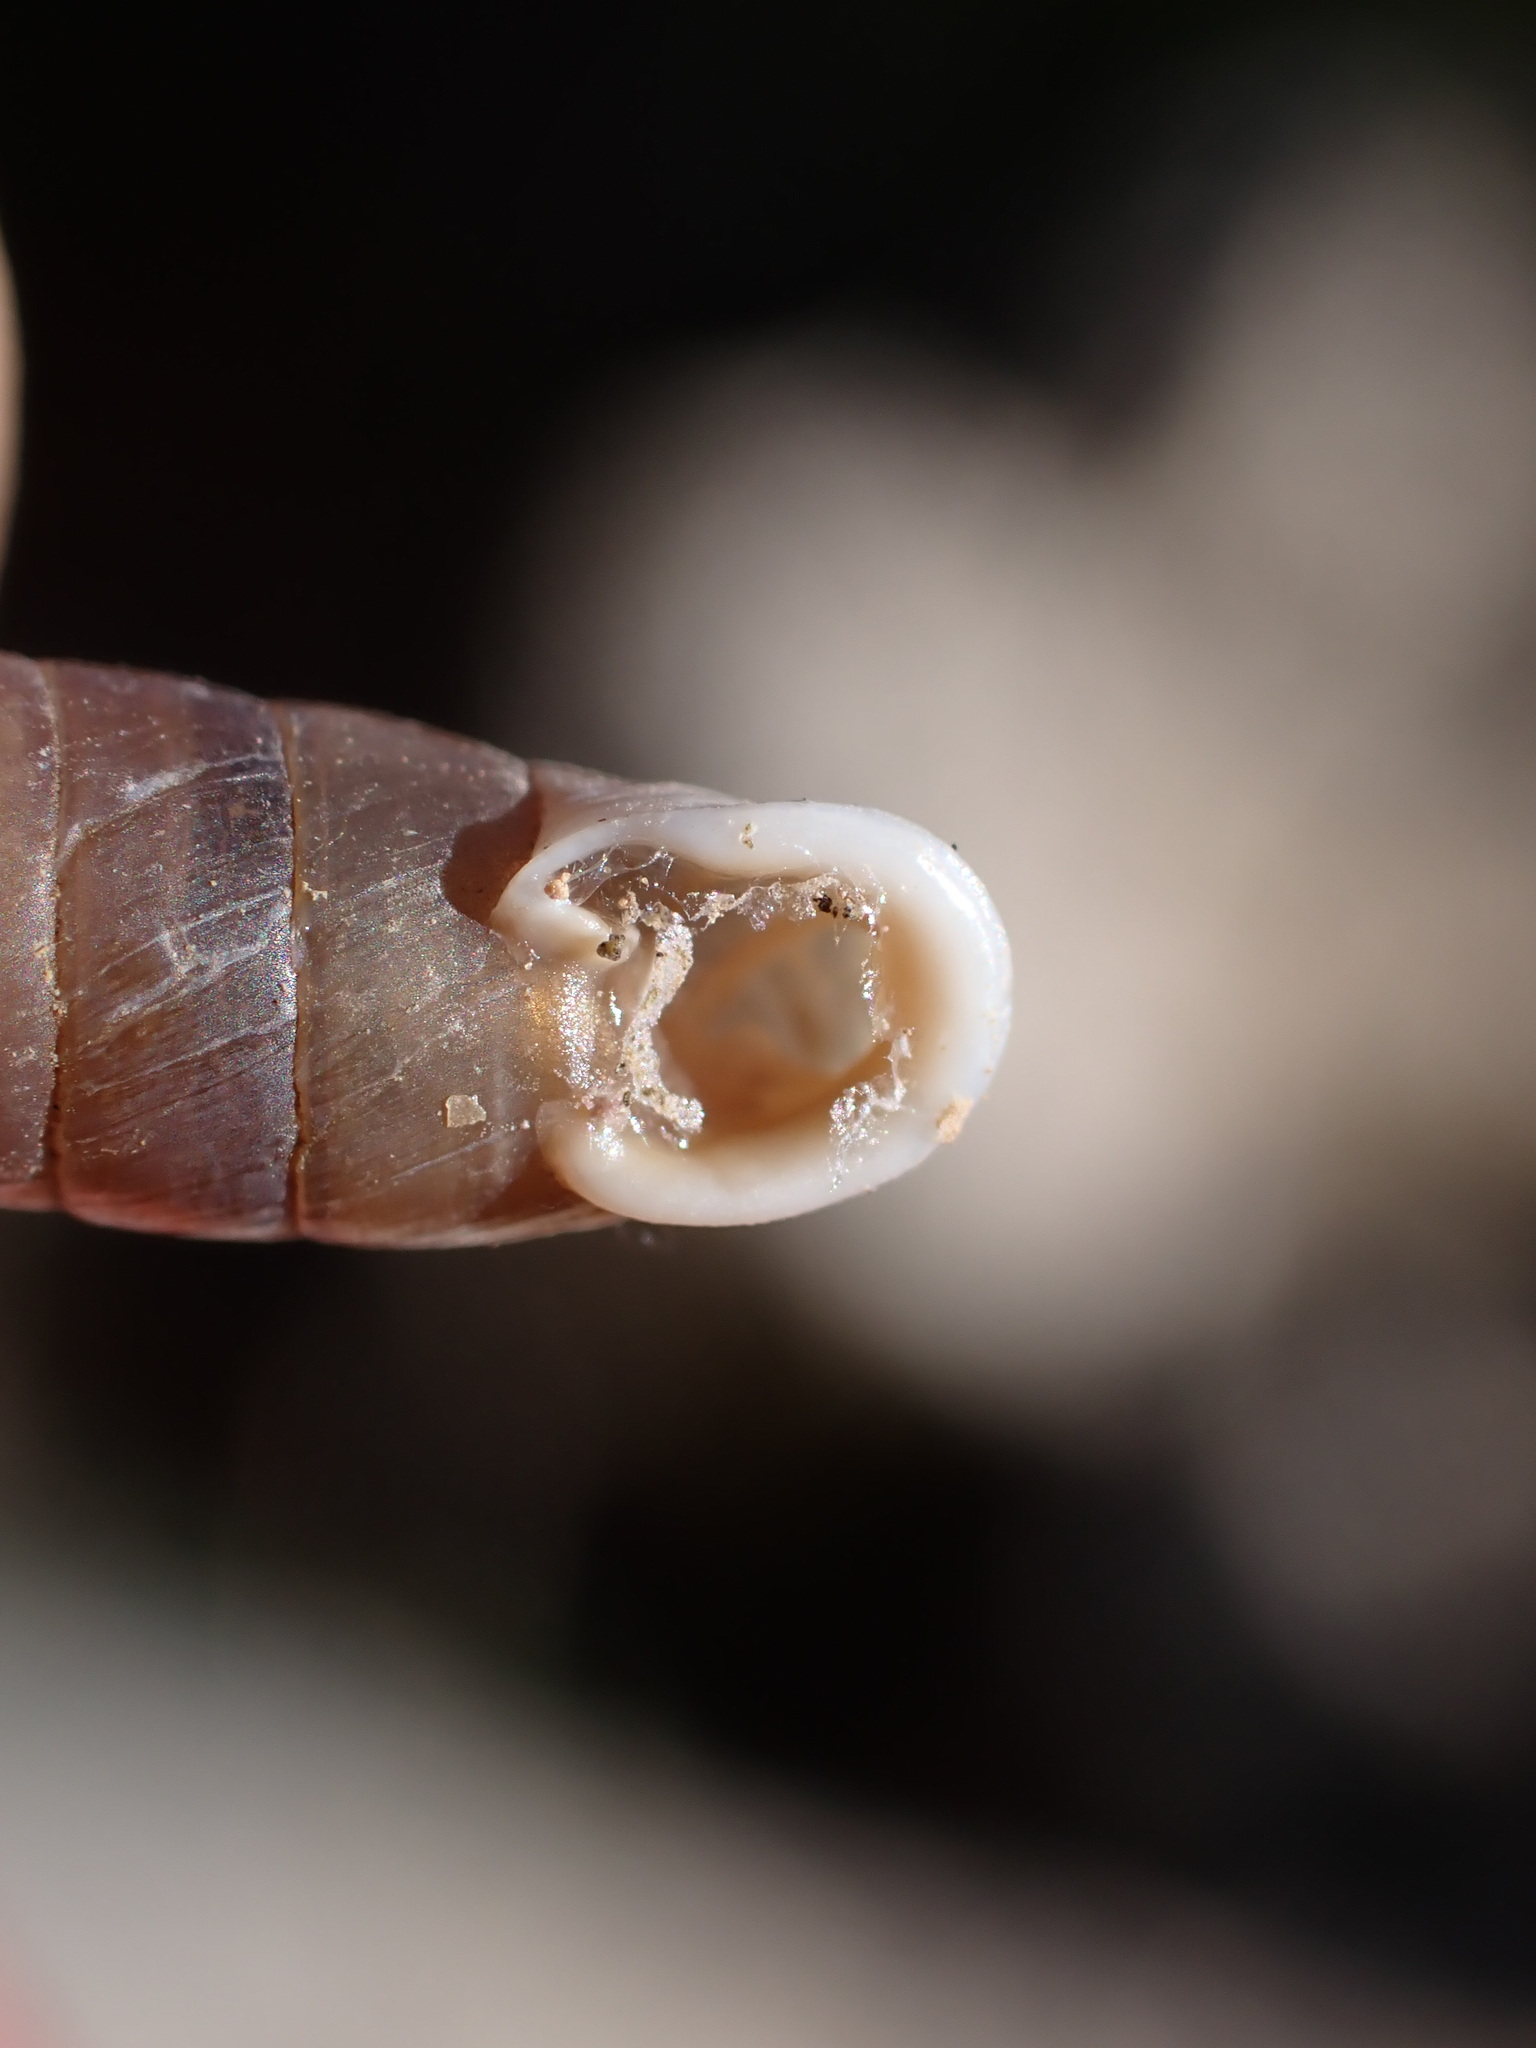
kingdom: Animalia
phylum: Mollusca
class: Gastropoda
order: Stylommatophora
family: Chondrinidae
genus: Granaria
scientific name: Granaria variabilis
